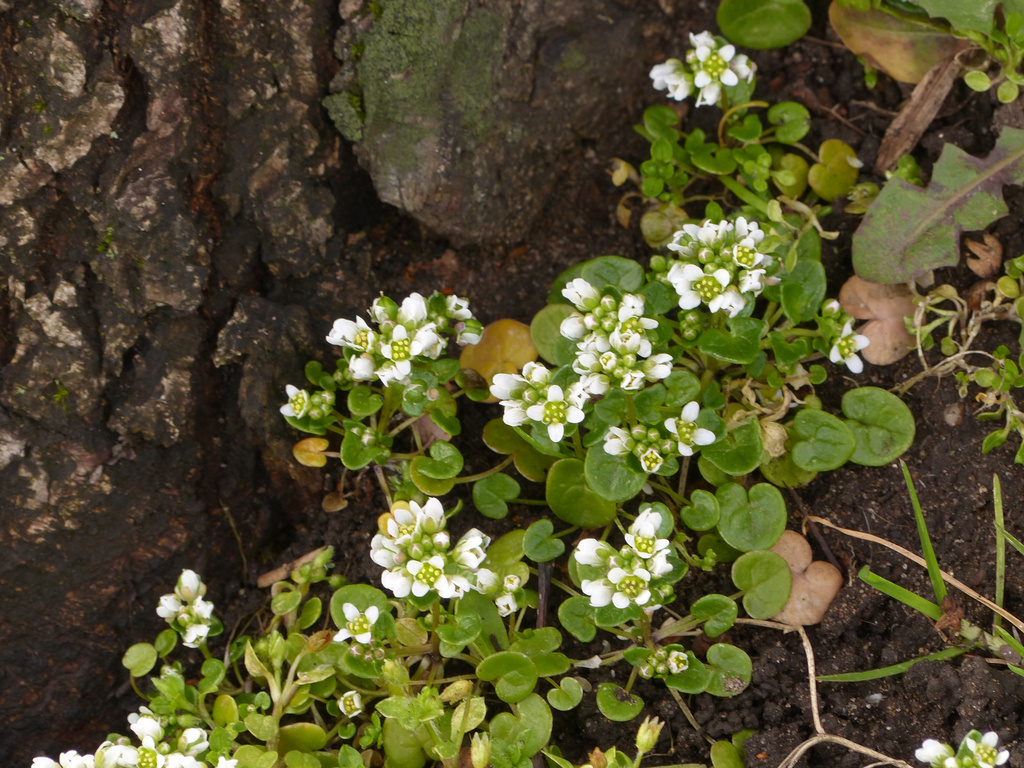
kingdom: Plantae
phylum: Tracheophyta
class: Magnoliopsida
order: Brassicales
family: Brassicaceae
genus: Cochlearia
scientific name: Cochlearia danica
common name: Early scurvygrass
